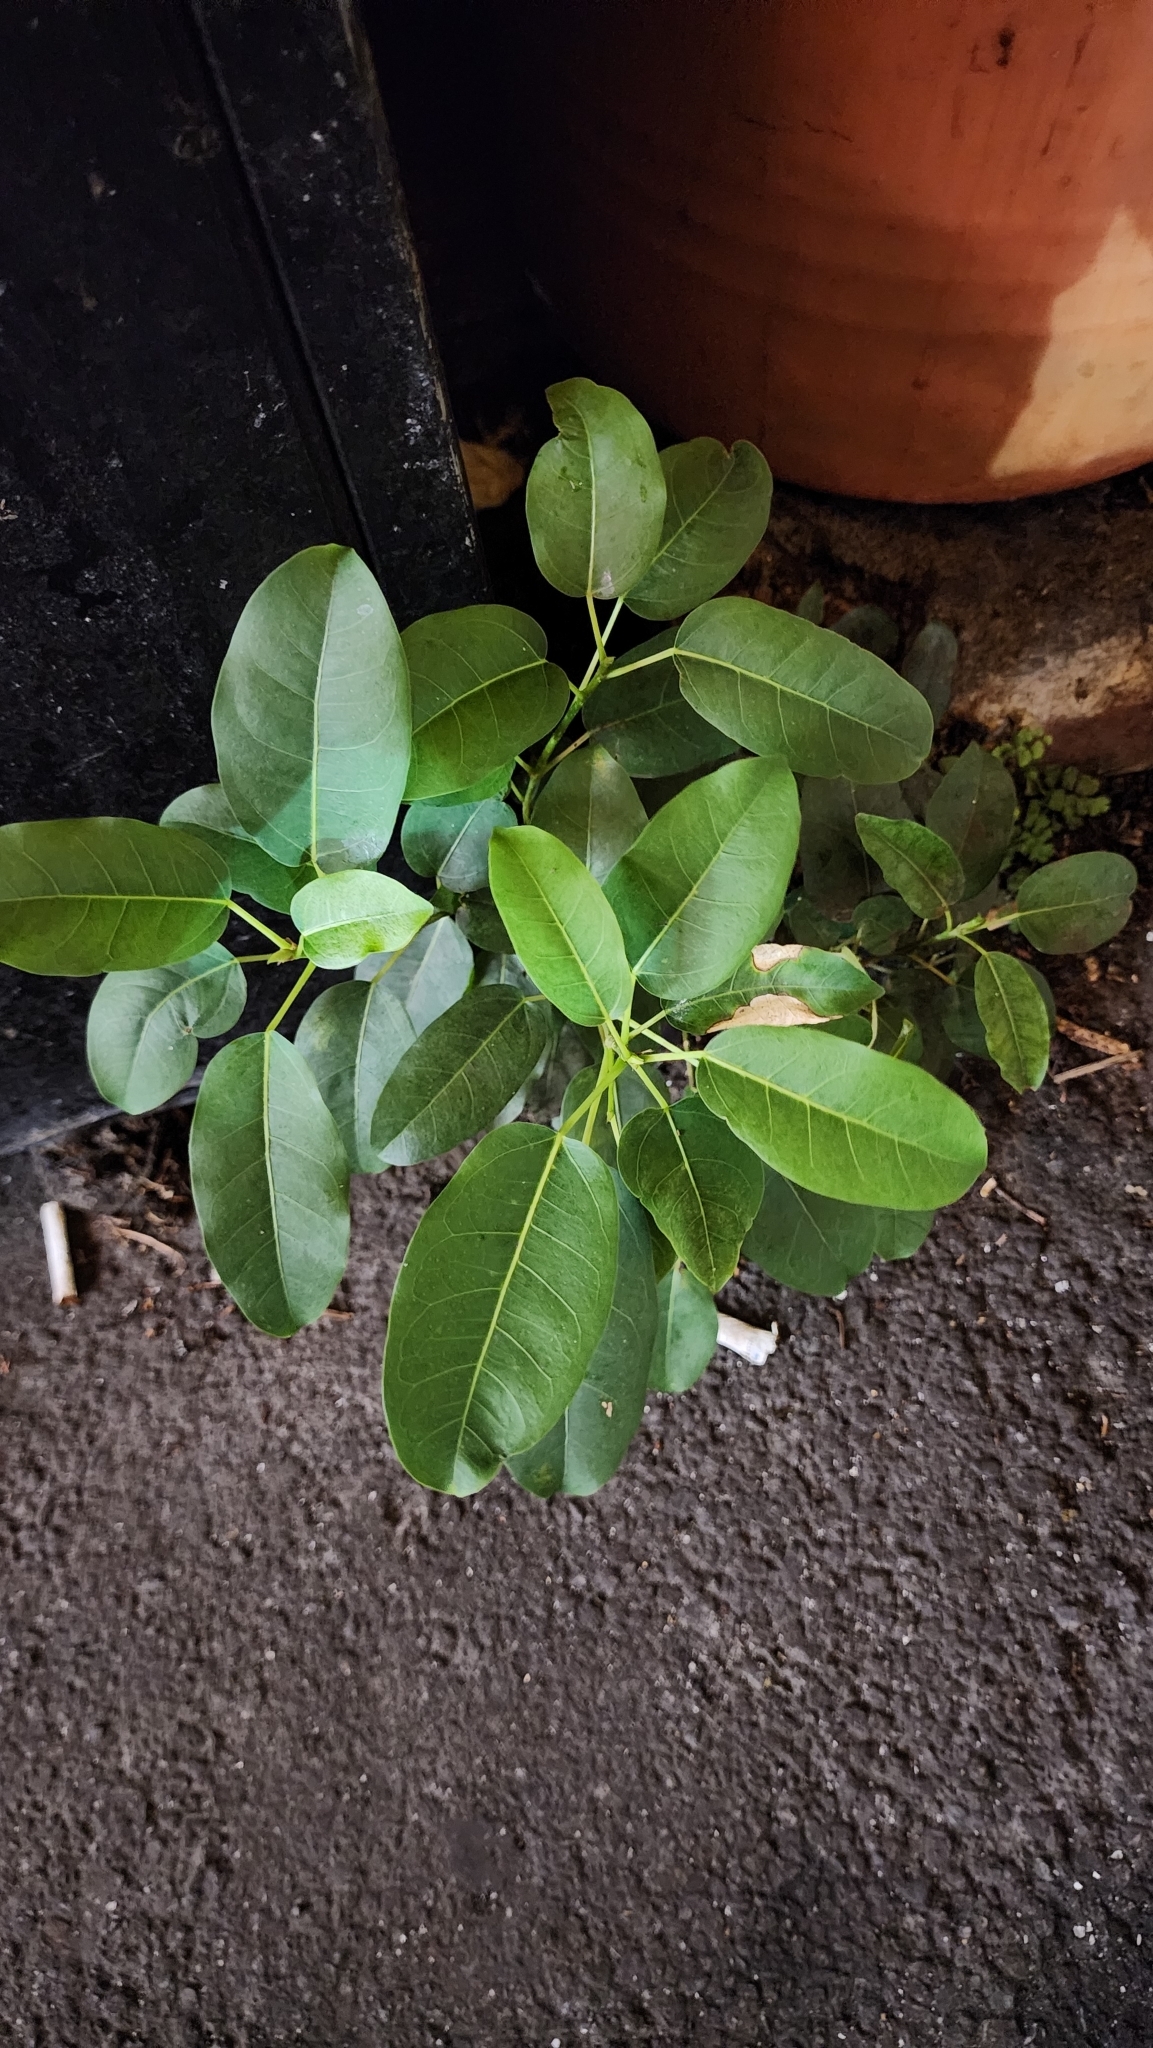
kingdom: Plantae
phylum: Tracheophyta
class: Magnoliopsida
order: Rosales
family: Moraceae
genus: Ficus
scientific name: Ficus subpisocarpa
